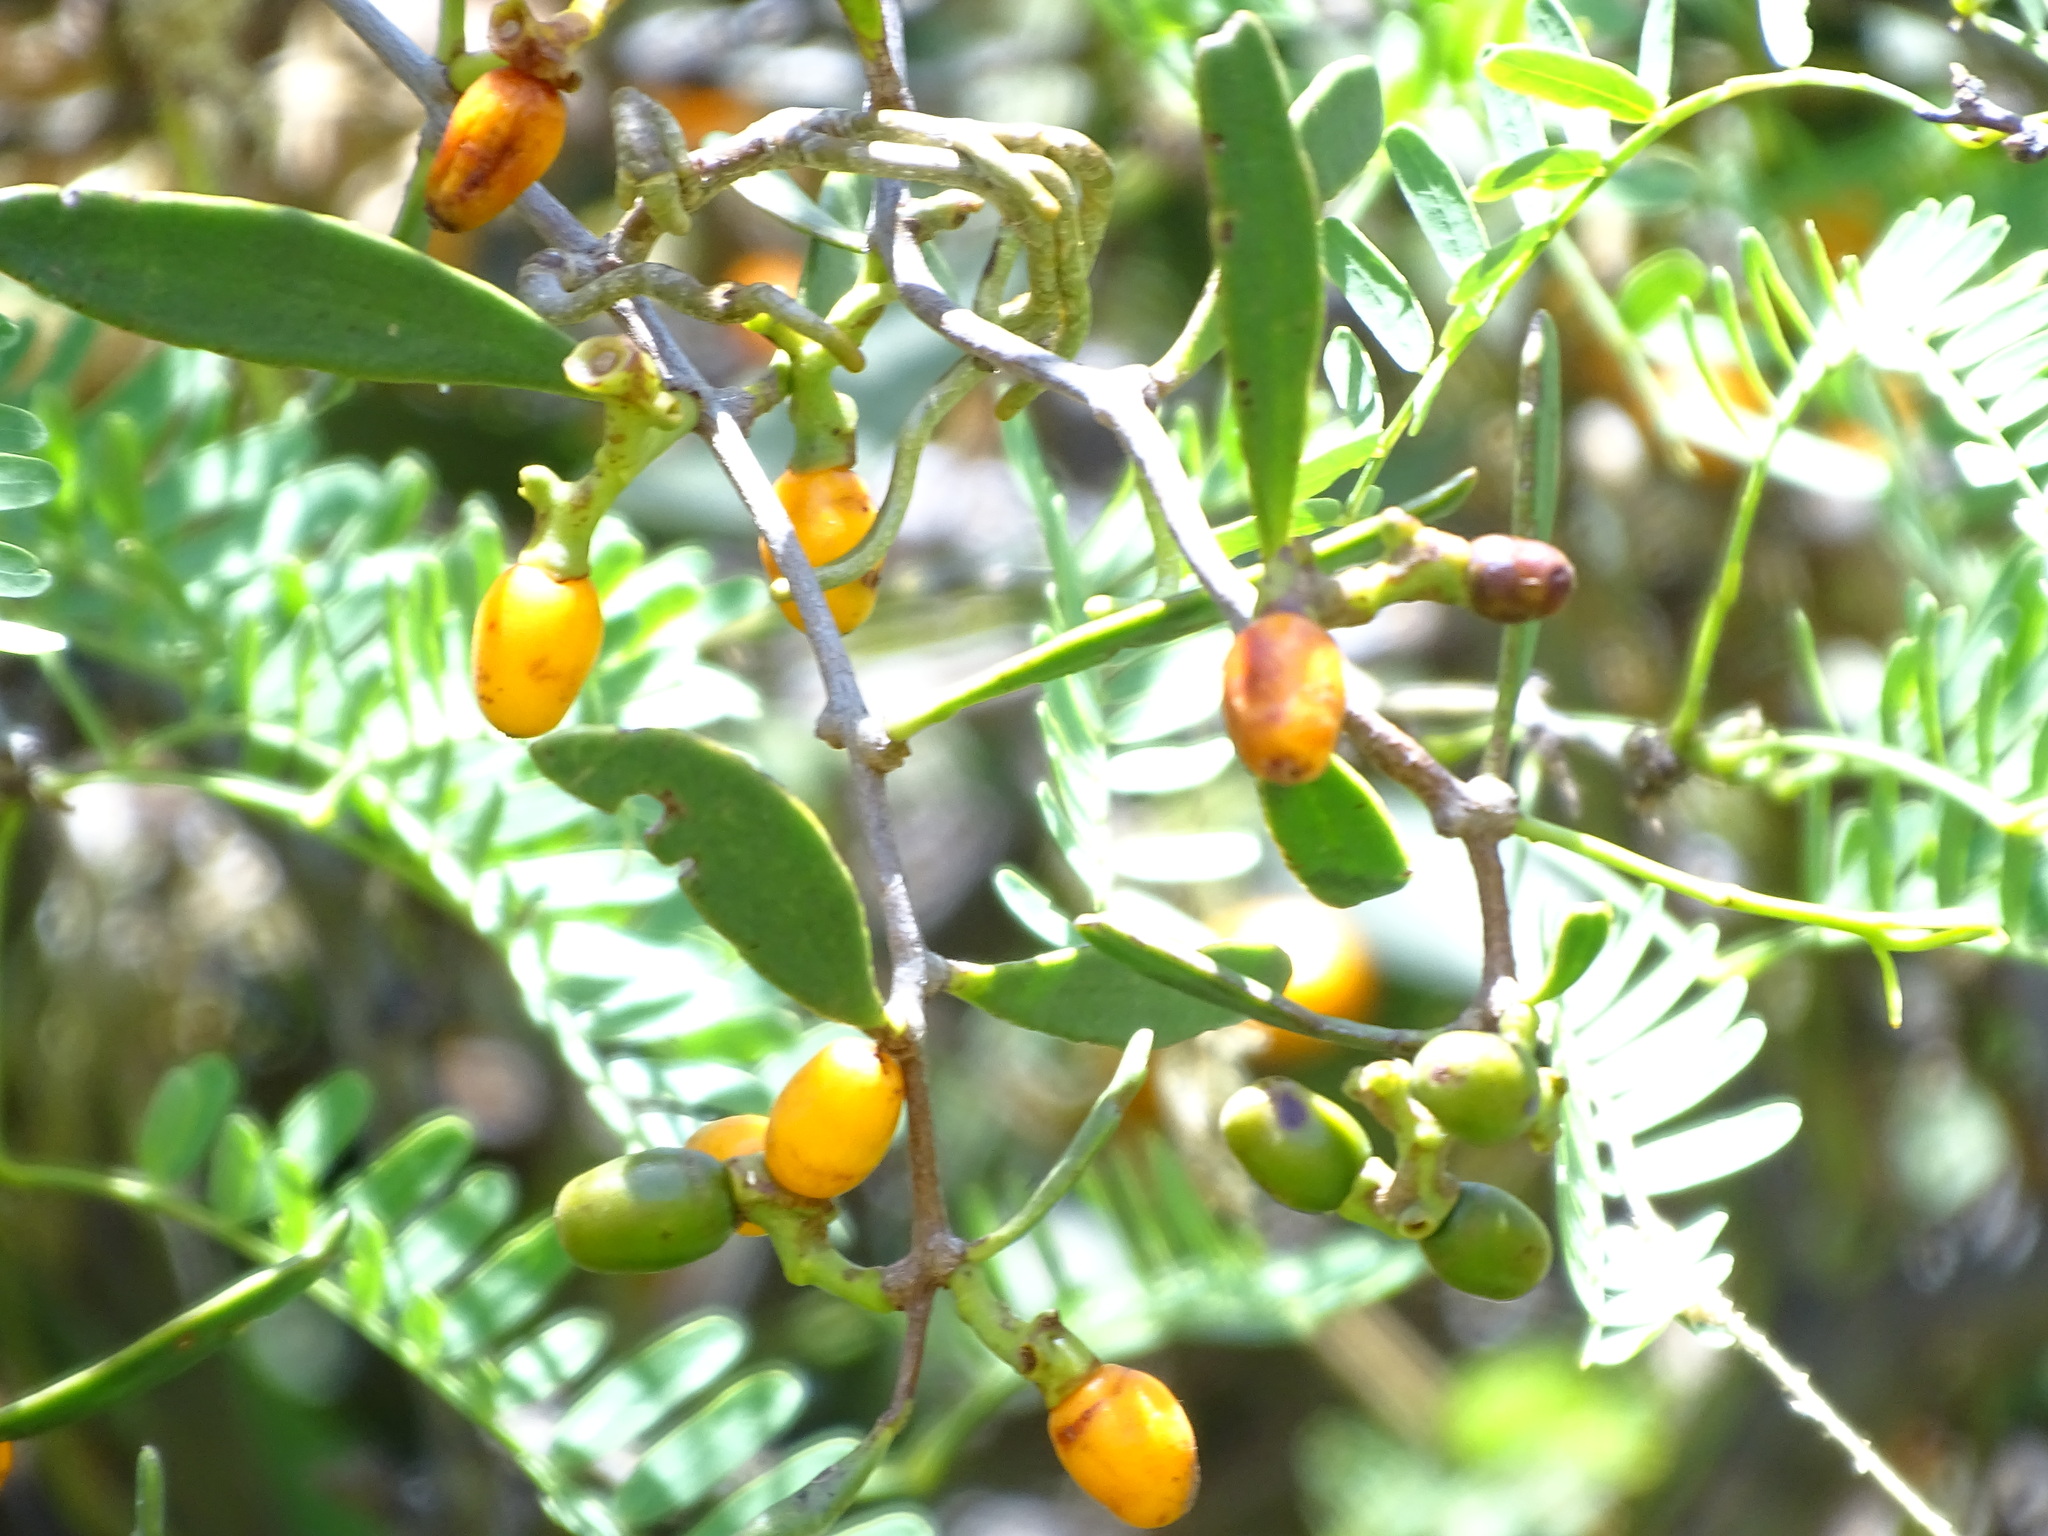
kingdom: Plantae
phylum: Tracheophyta
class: Magnoliopsida
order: Santalales
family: Loranthaceae
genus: Struthanthus
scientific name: Struthanthus palmeri
